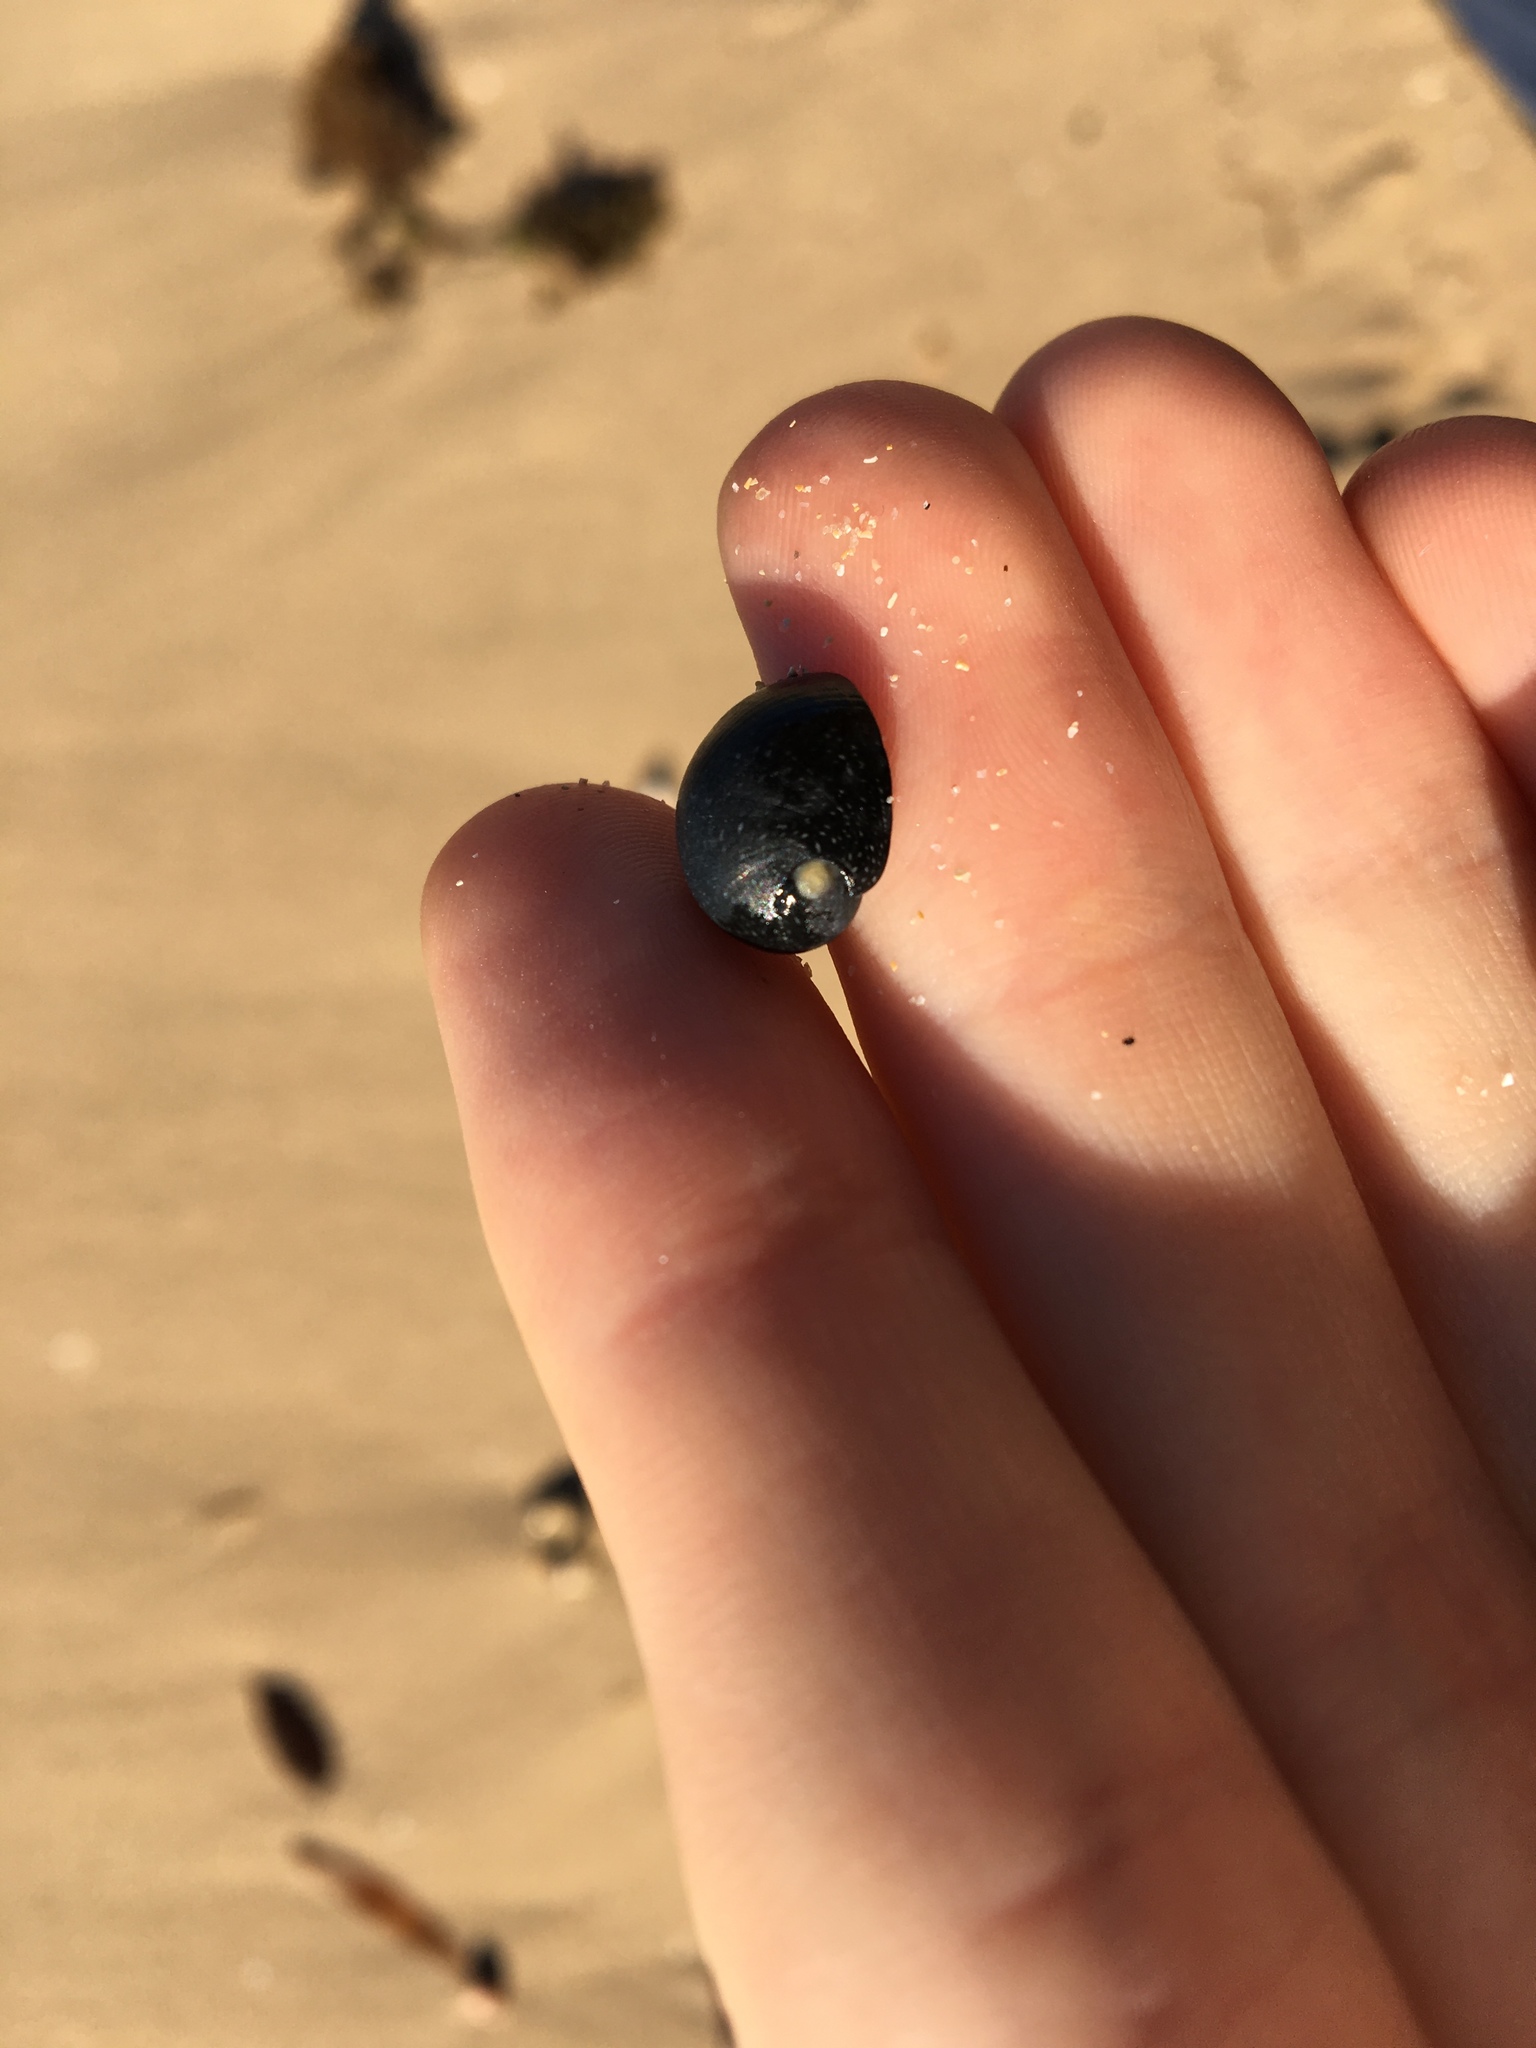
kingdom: Animalia
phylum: Mollusca
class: Gastropoda
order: Cycloneritida
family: Neritidae
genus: Nerita
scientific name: Nerita melanotragus
